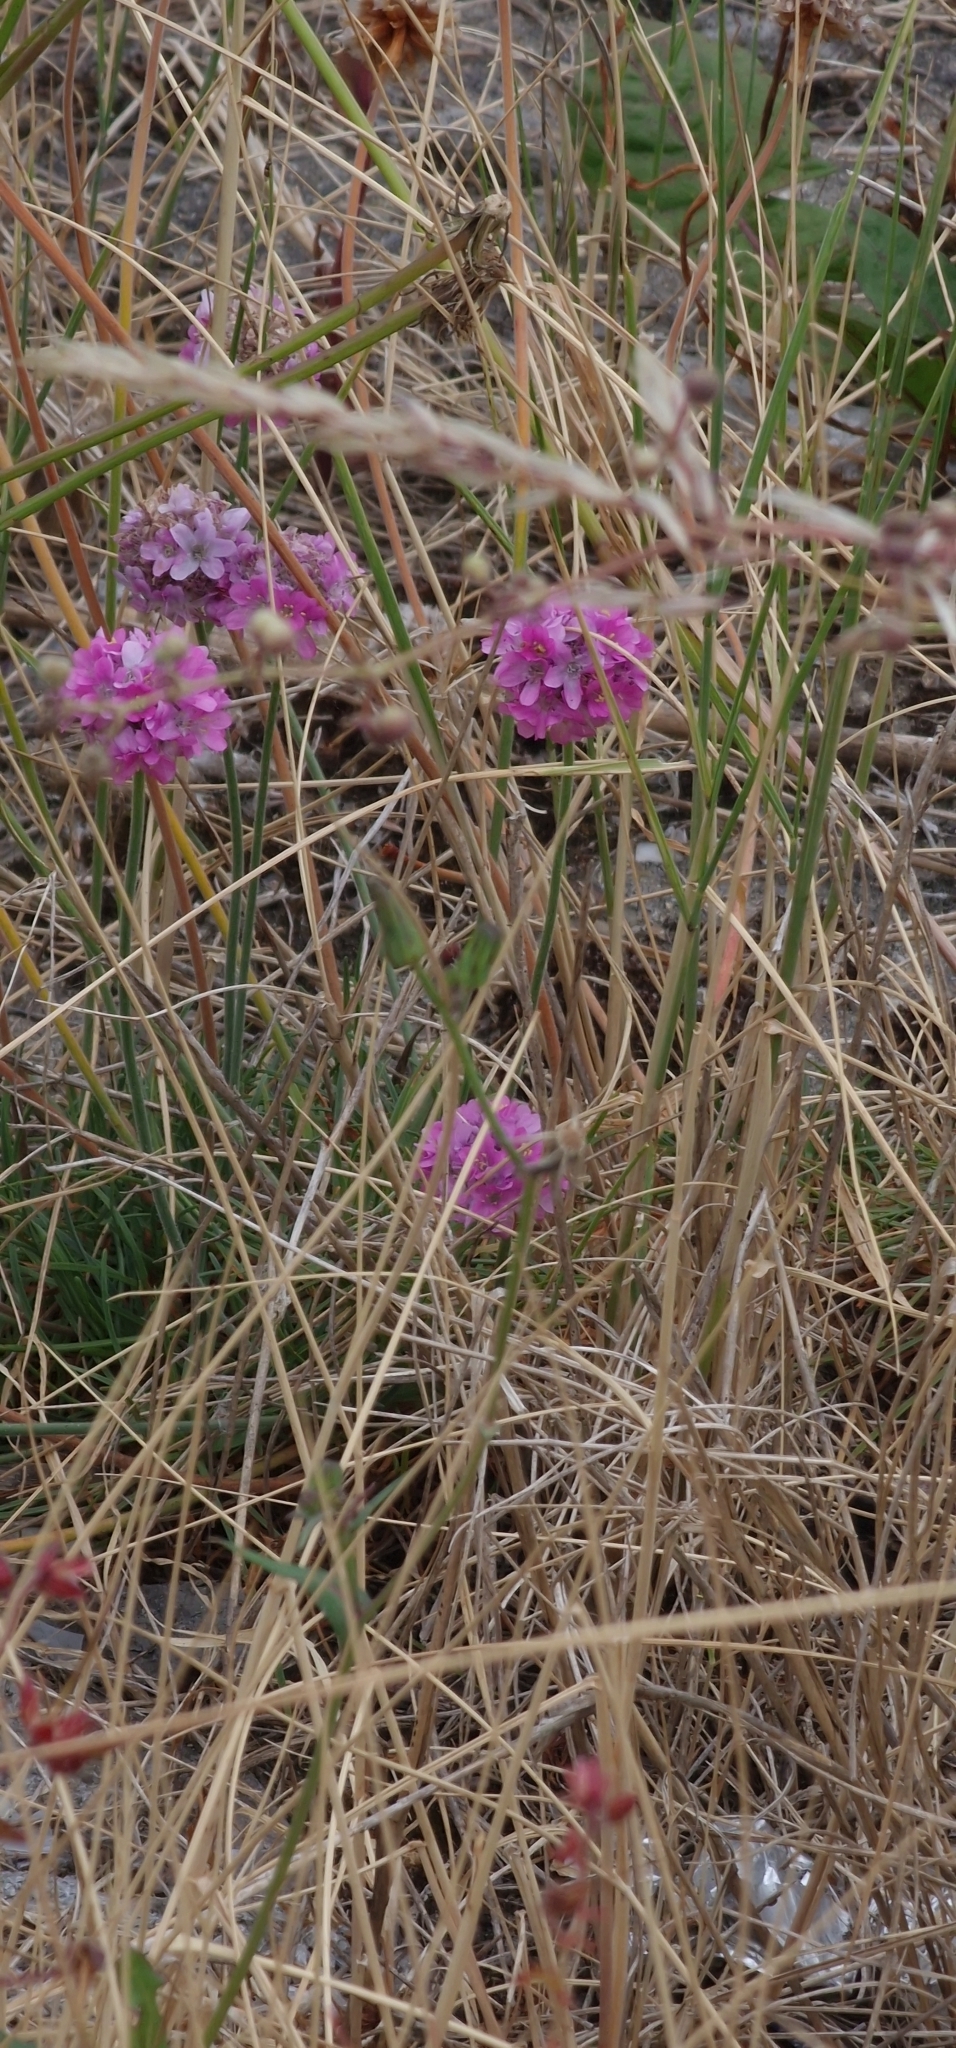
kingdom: Plantae
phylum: Tracheophyta
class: Magnoliopsida
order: Caryophyllales
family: Plumbaginaceae
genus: Armeria
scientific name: Armeria maritima
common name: Thrift
